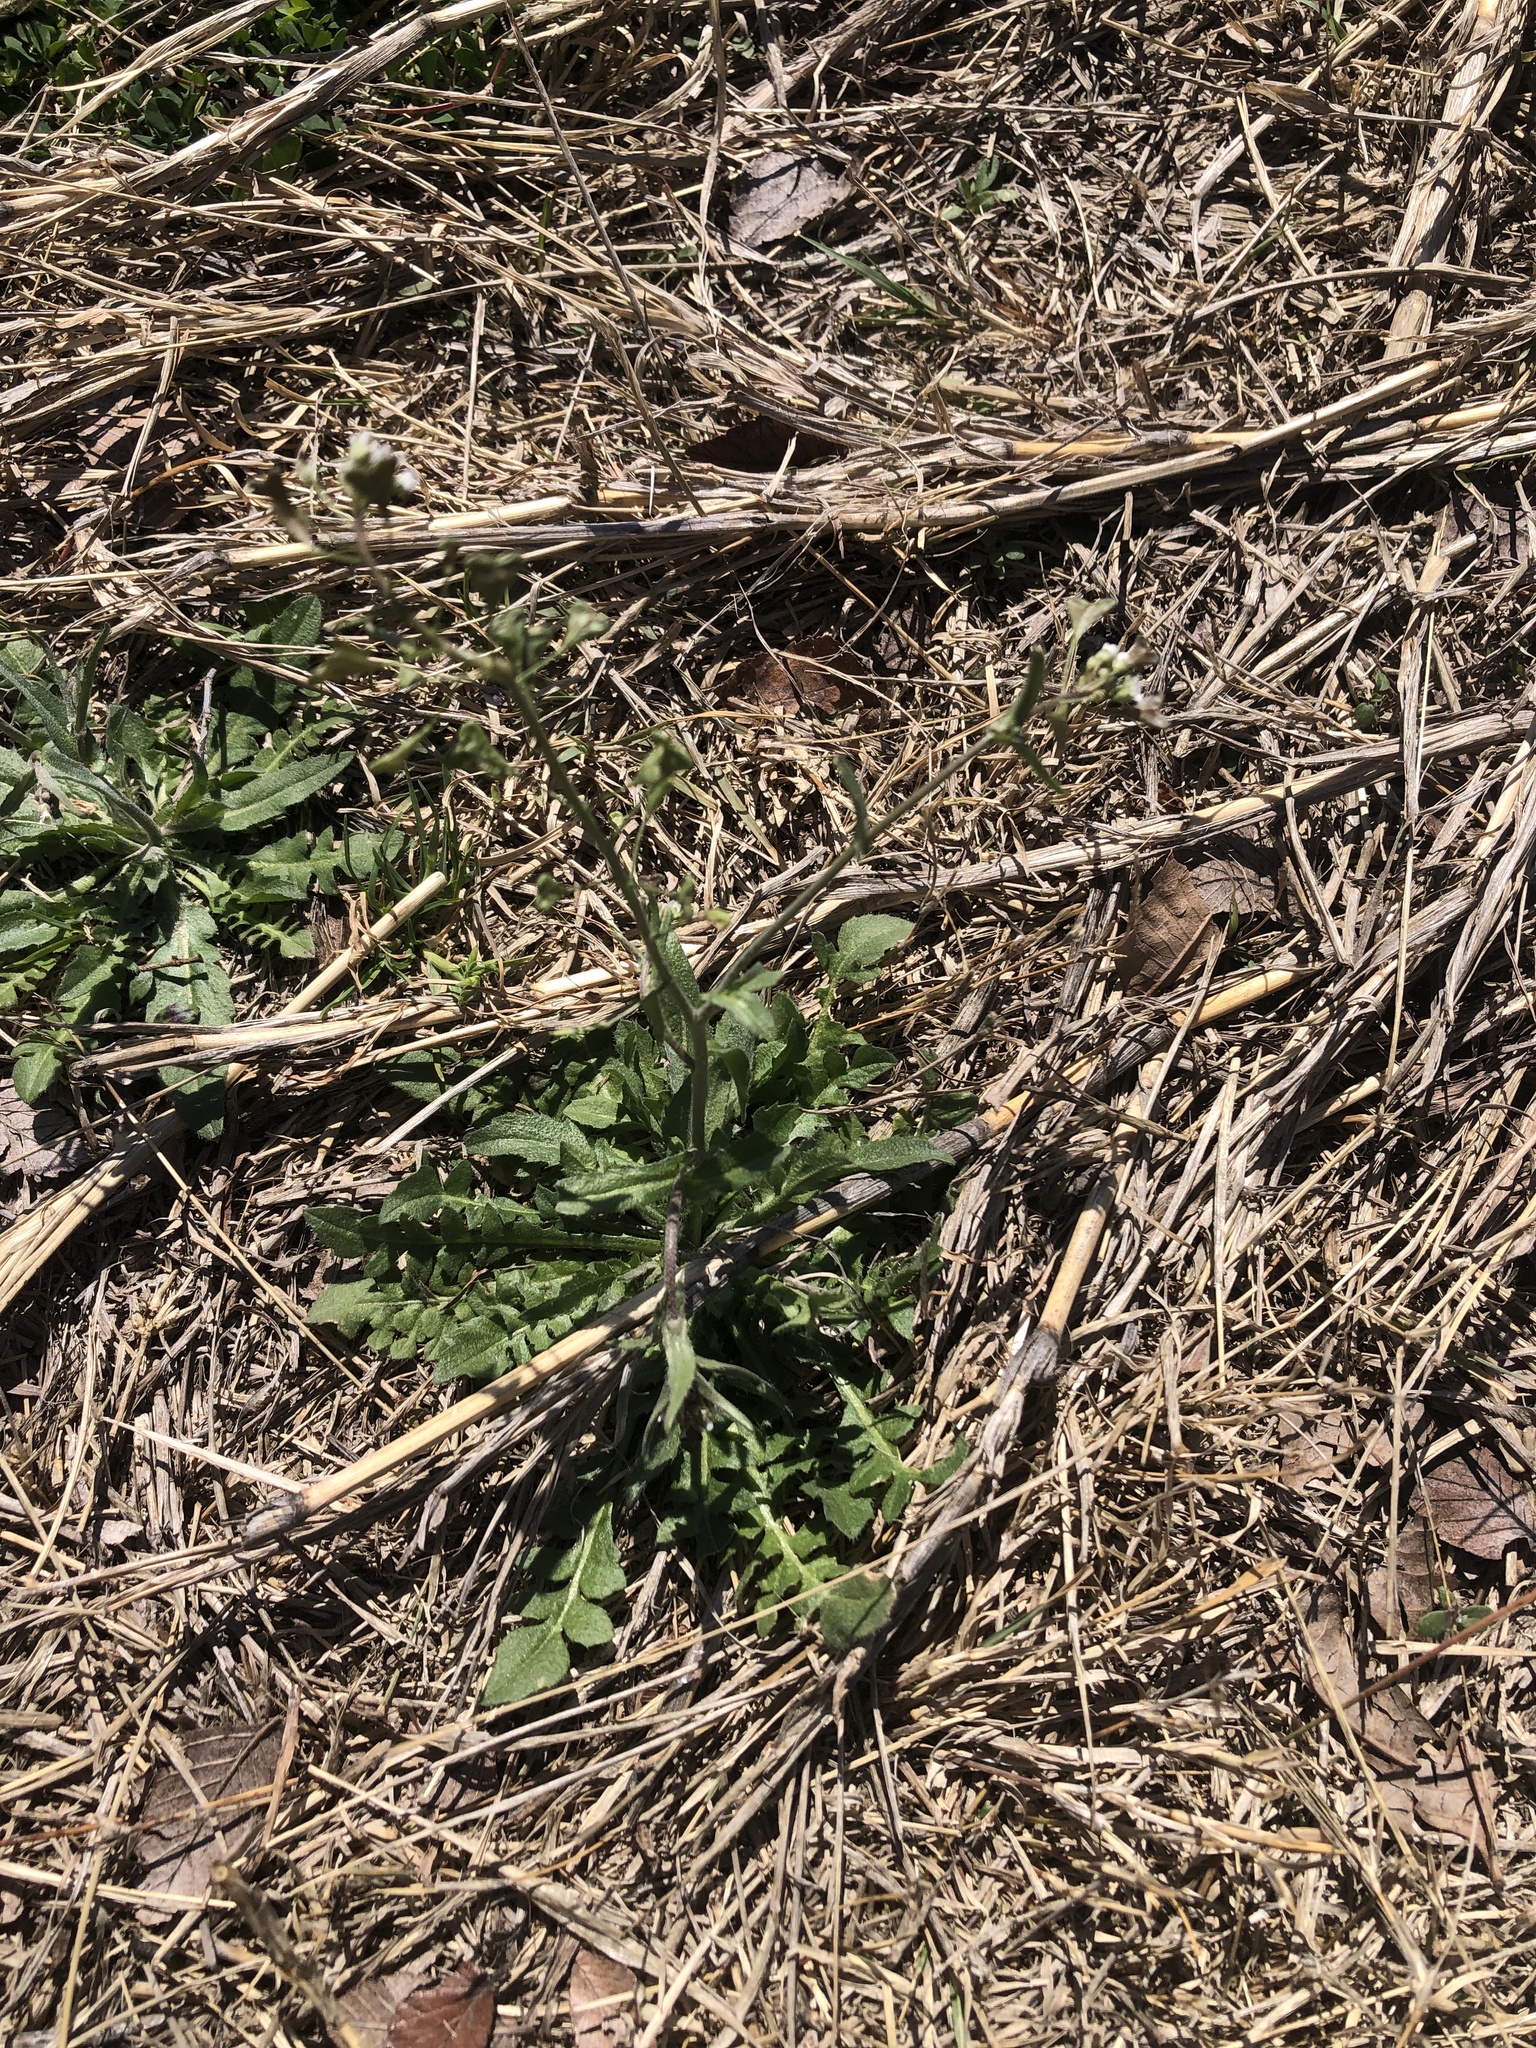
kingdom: Plantae
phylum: Tracheophyta
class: Magnoliopsida
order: Brassicales
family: Brassicaceae
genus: Capsella
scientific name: Capsella bursa-pastoris
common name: Shepherd's purse
